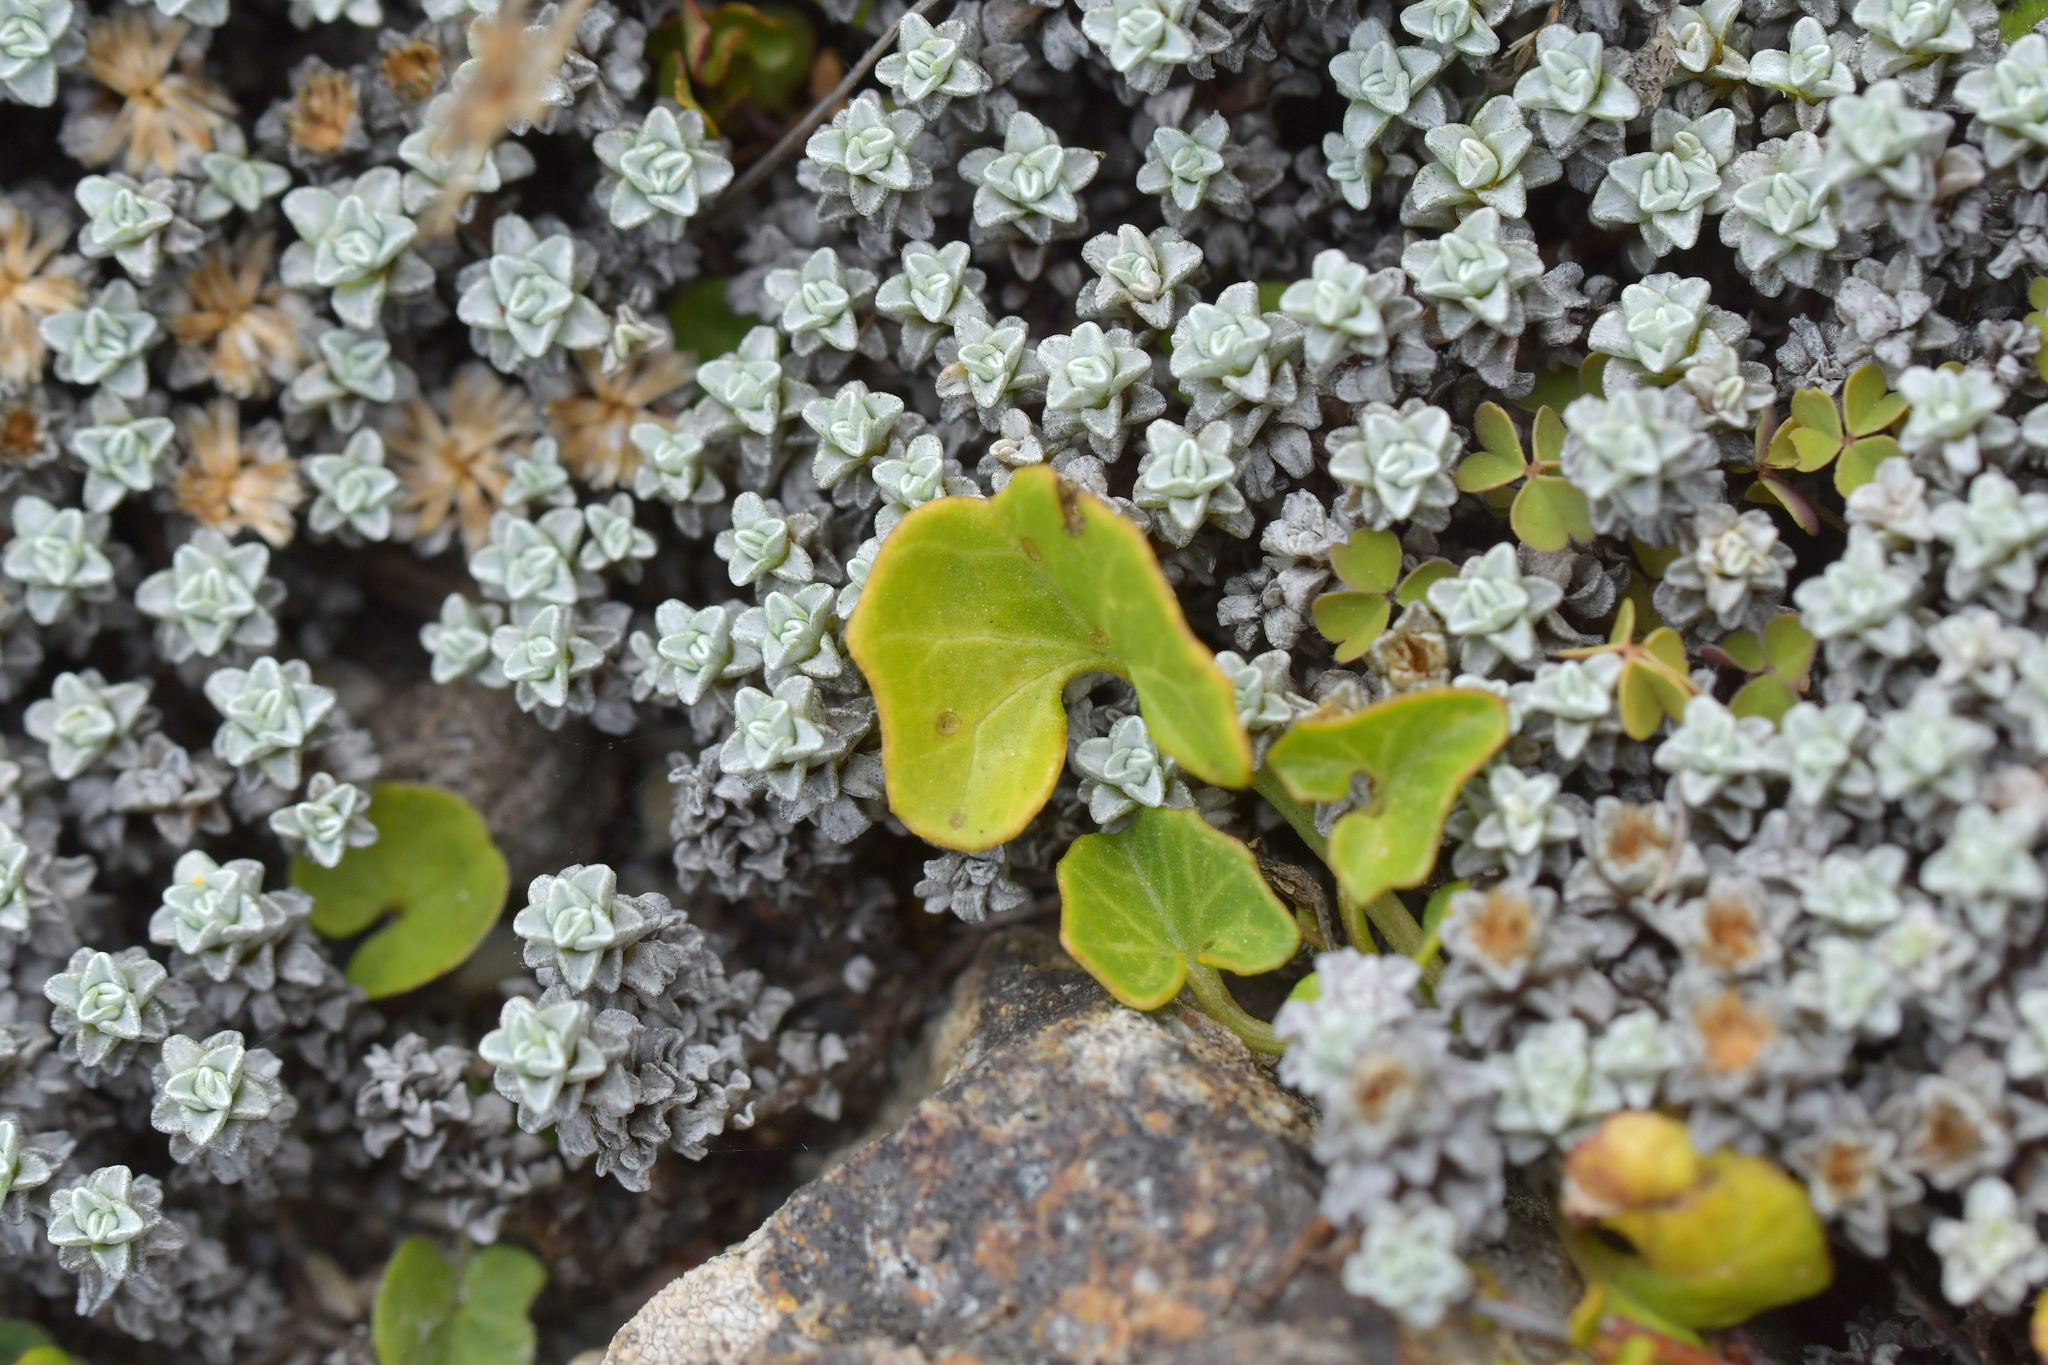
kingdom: Plantae
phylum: Tracheophyta
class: Magnoliopsida
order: Solanales
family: Convolvulaceae
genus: Calystegia
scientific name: Calystegia soldanella
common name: Sea bindweed
